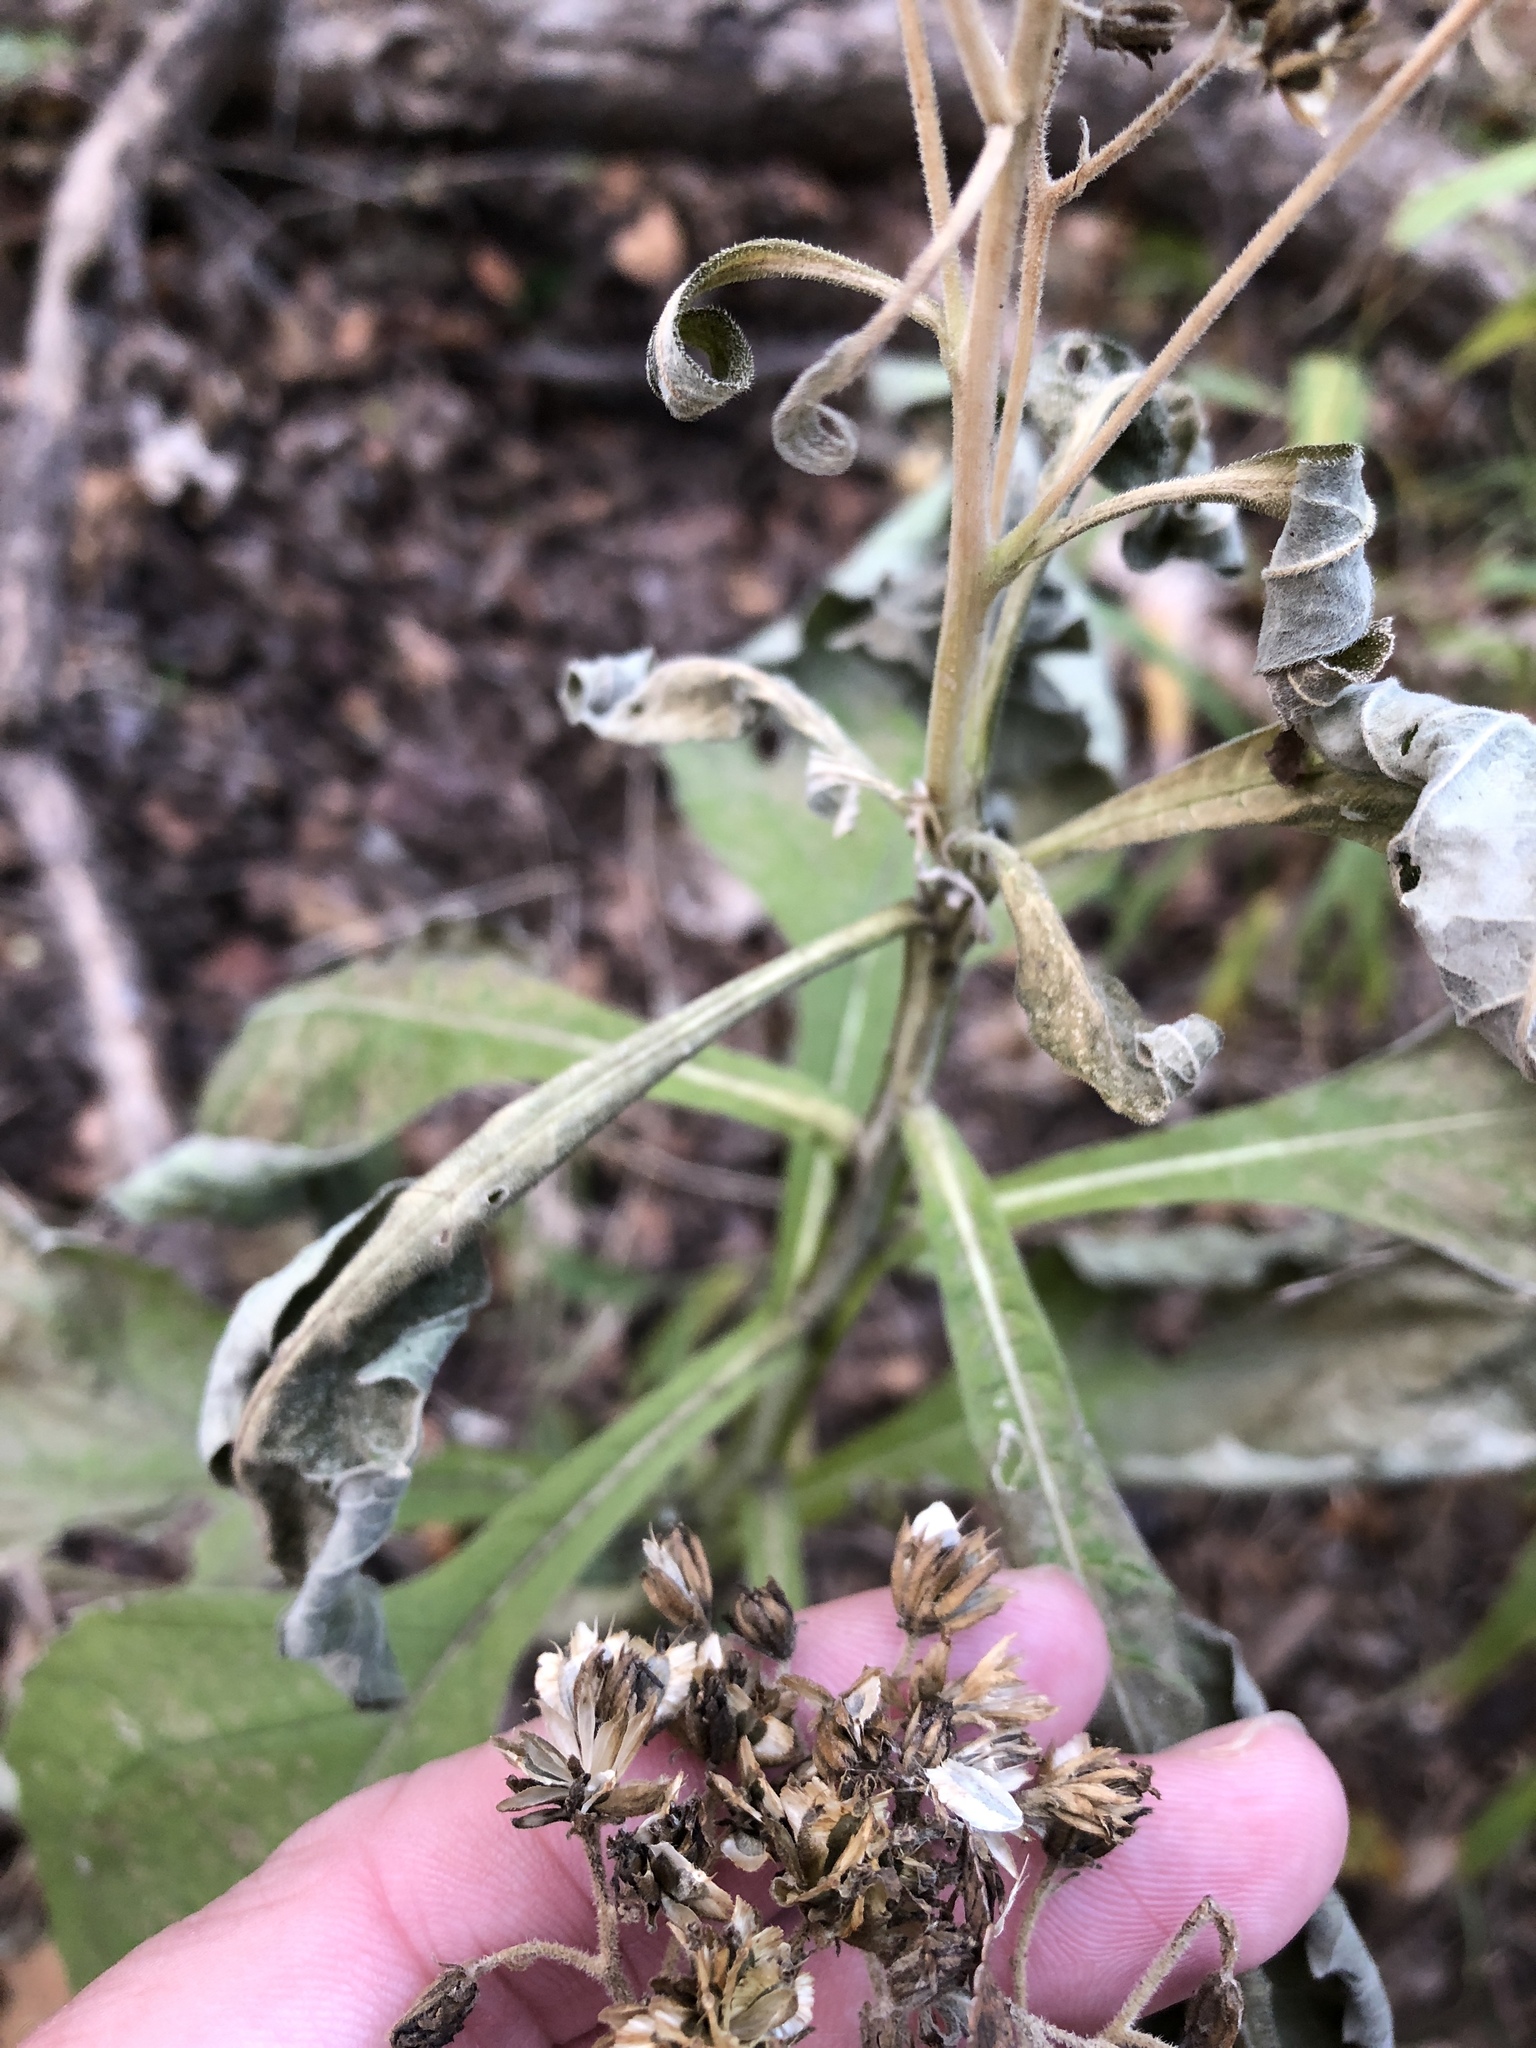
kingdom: Plantae
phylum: Tracheophyta
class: Magnoliopsida
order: Asterales
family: Asteraceae
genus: Verbesina
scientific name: Verbesina virginica
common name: Frostweed
